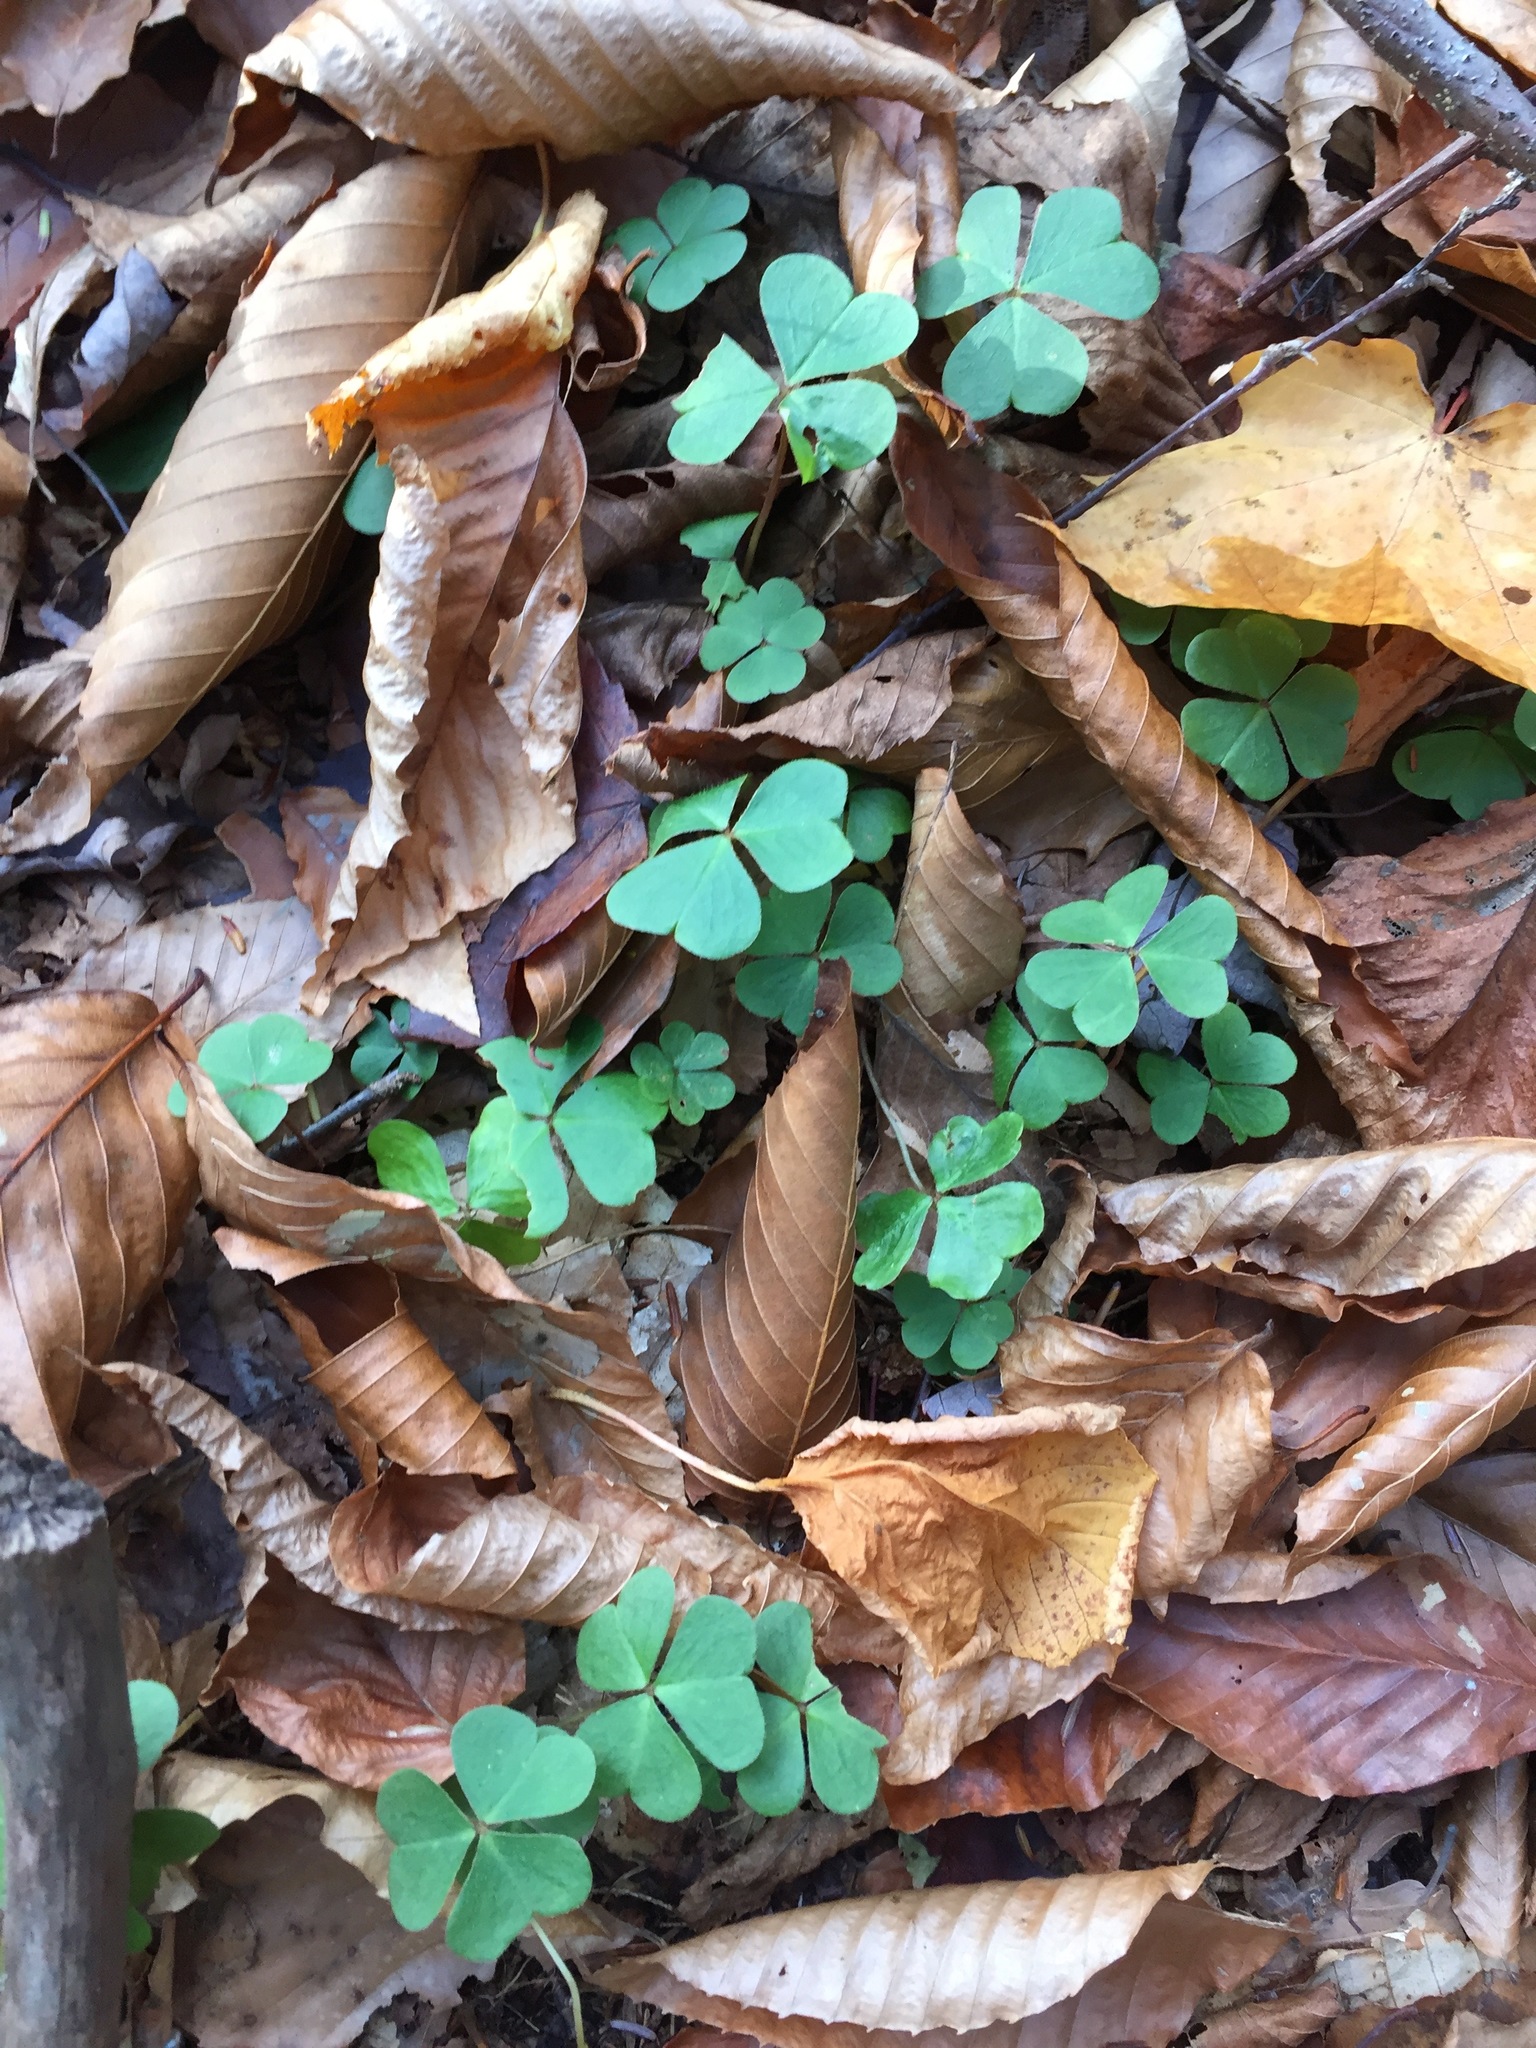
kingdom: Plantae
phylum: Tracheophyta
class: Magnoliopsida
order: Oxalidales
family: Oxalidaceae
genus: Oxalis
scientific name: Oxalis montana
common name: American wood-sorrel
